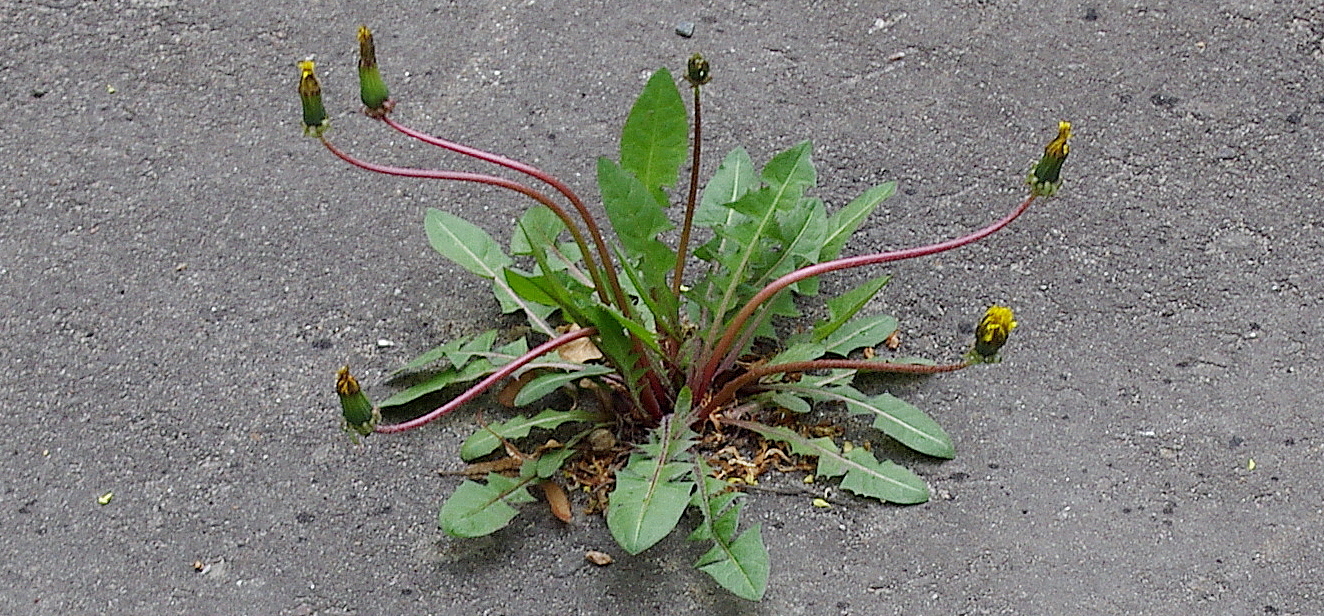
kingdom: Plantae
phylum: Tracheophyta
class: Magnoliopsida
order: Asterales
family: Asteraceae
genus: Taraxacum
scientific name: Taraxacum officinale
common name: Common dandelion
